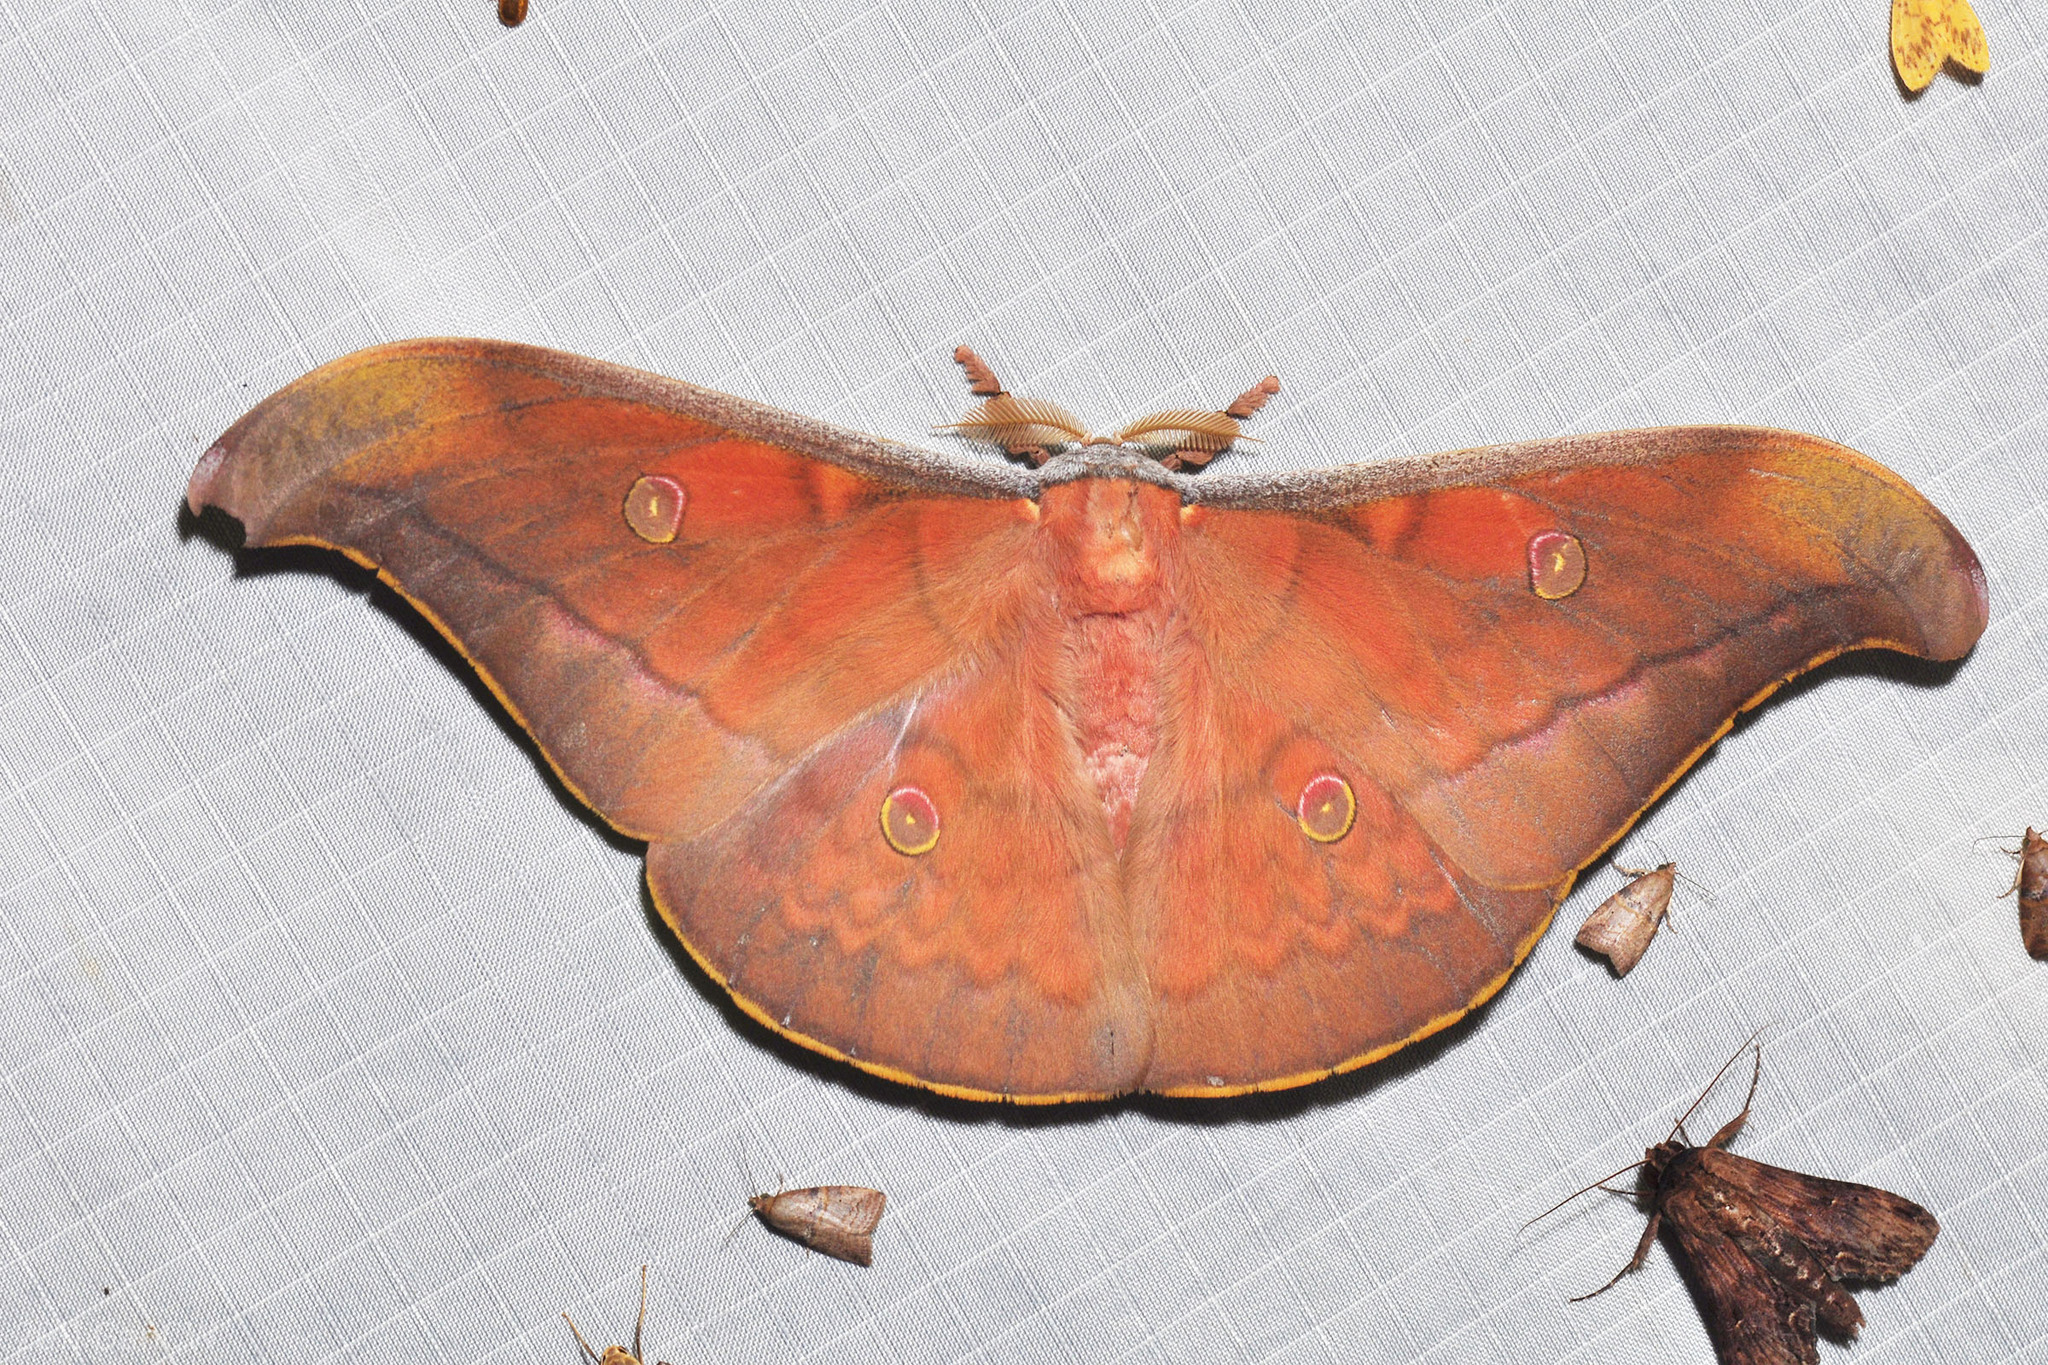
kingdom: Animalia
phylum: Arthropoda
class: Insecta
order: Lepidoptera
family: Saturniidae
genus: Antheraea
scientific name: Antheraea broschi
